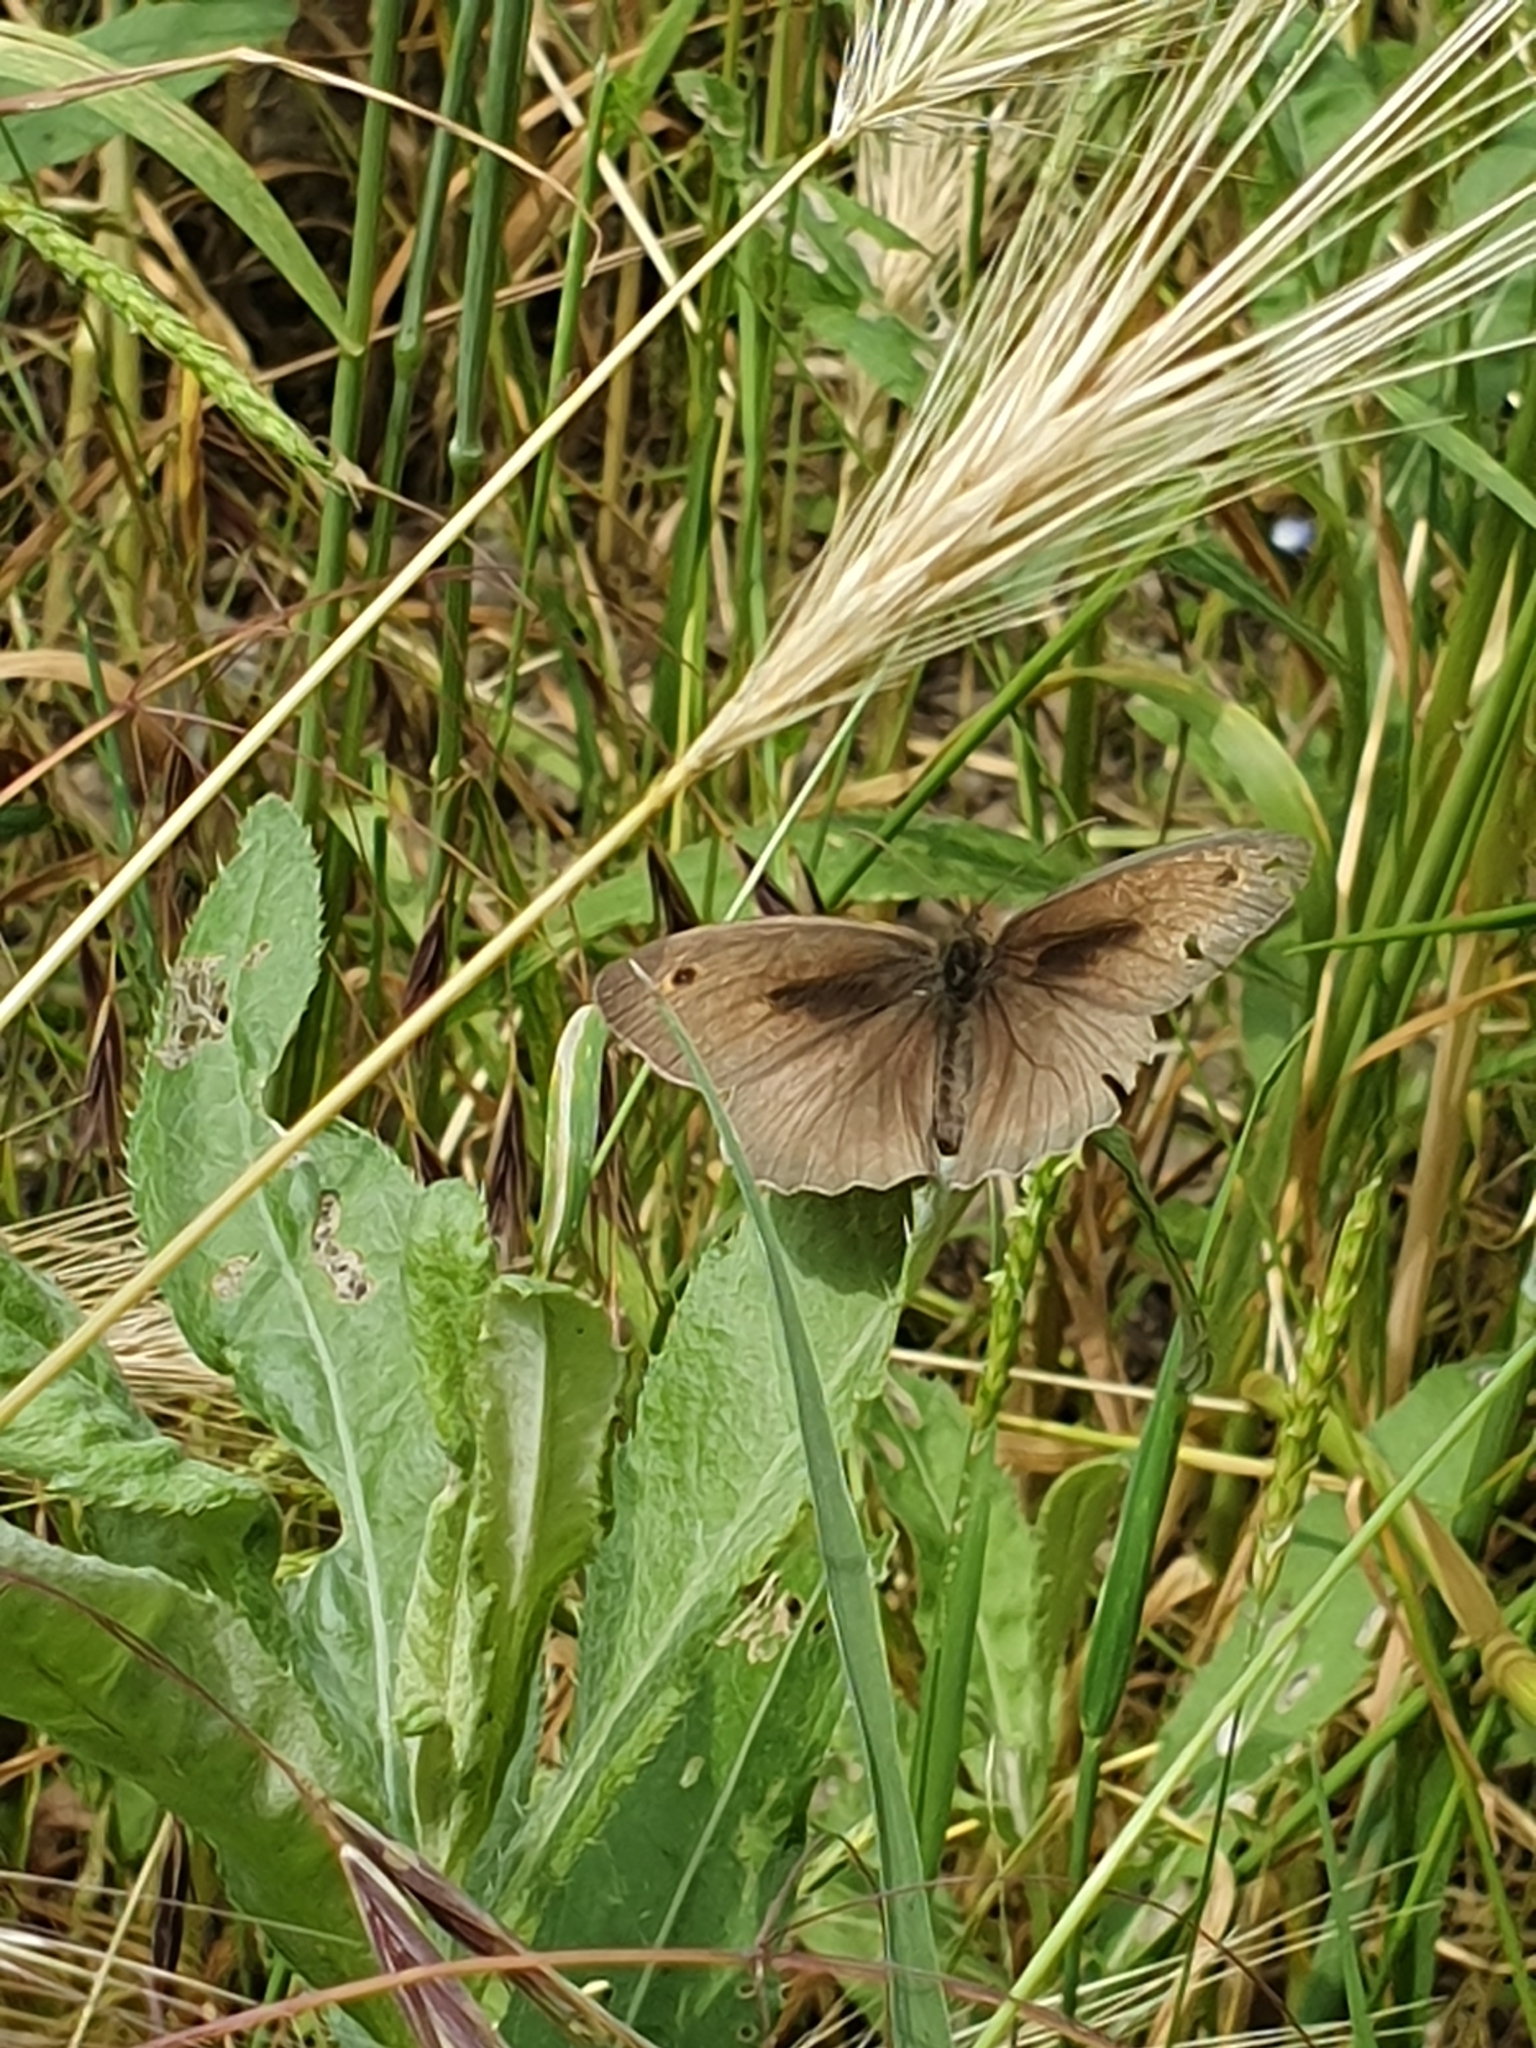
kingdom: Animalia
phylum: Arthropoda
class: Insecta
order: Lepidoptera
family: Nymphalidae
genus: Maniola
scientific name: Maniola jurtina
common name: Meadow brown
